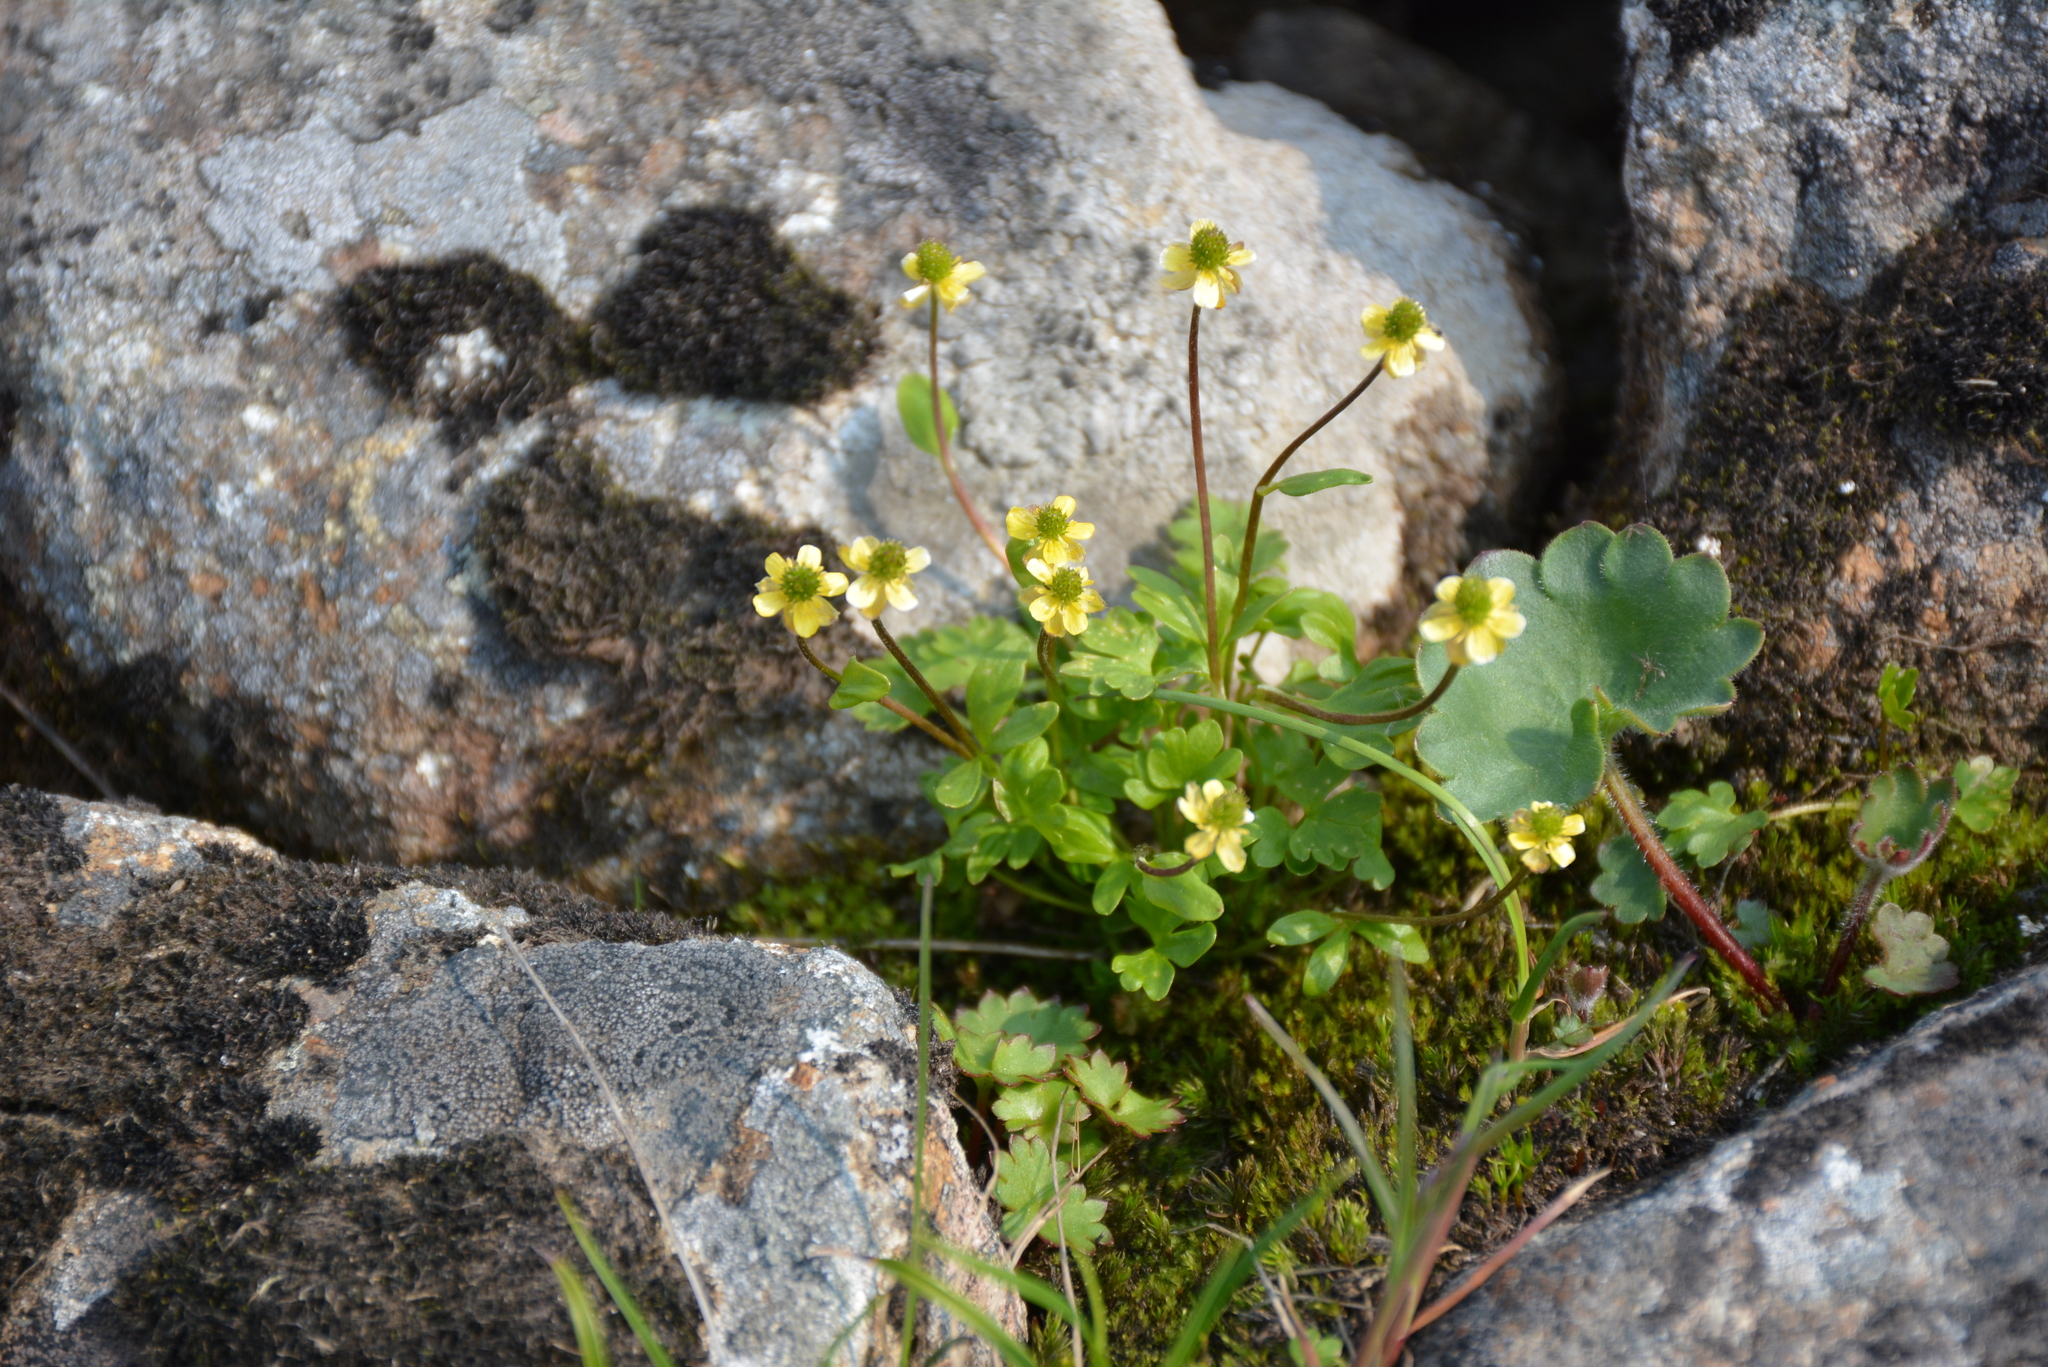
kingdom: Plantae
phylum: Tracheophyta
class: Magnoliopsida
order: Ranunculales
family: Ranunculaceae
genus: Ranunculus
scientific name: Ranunculus pygmaeus
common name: Dwarf buttercup
